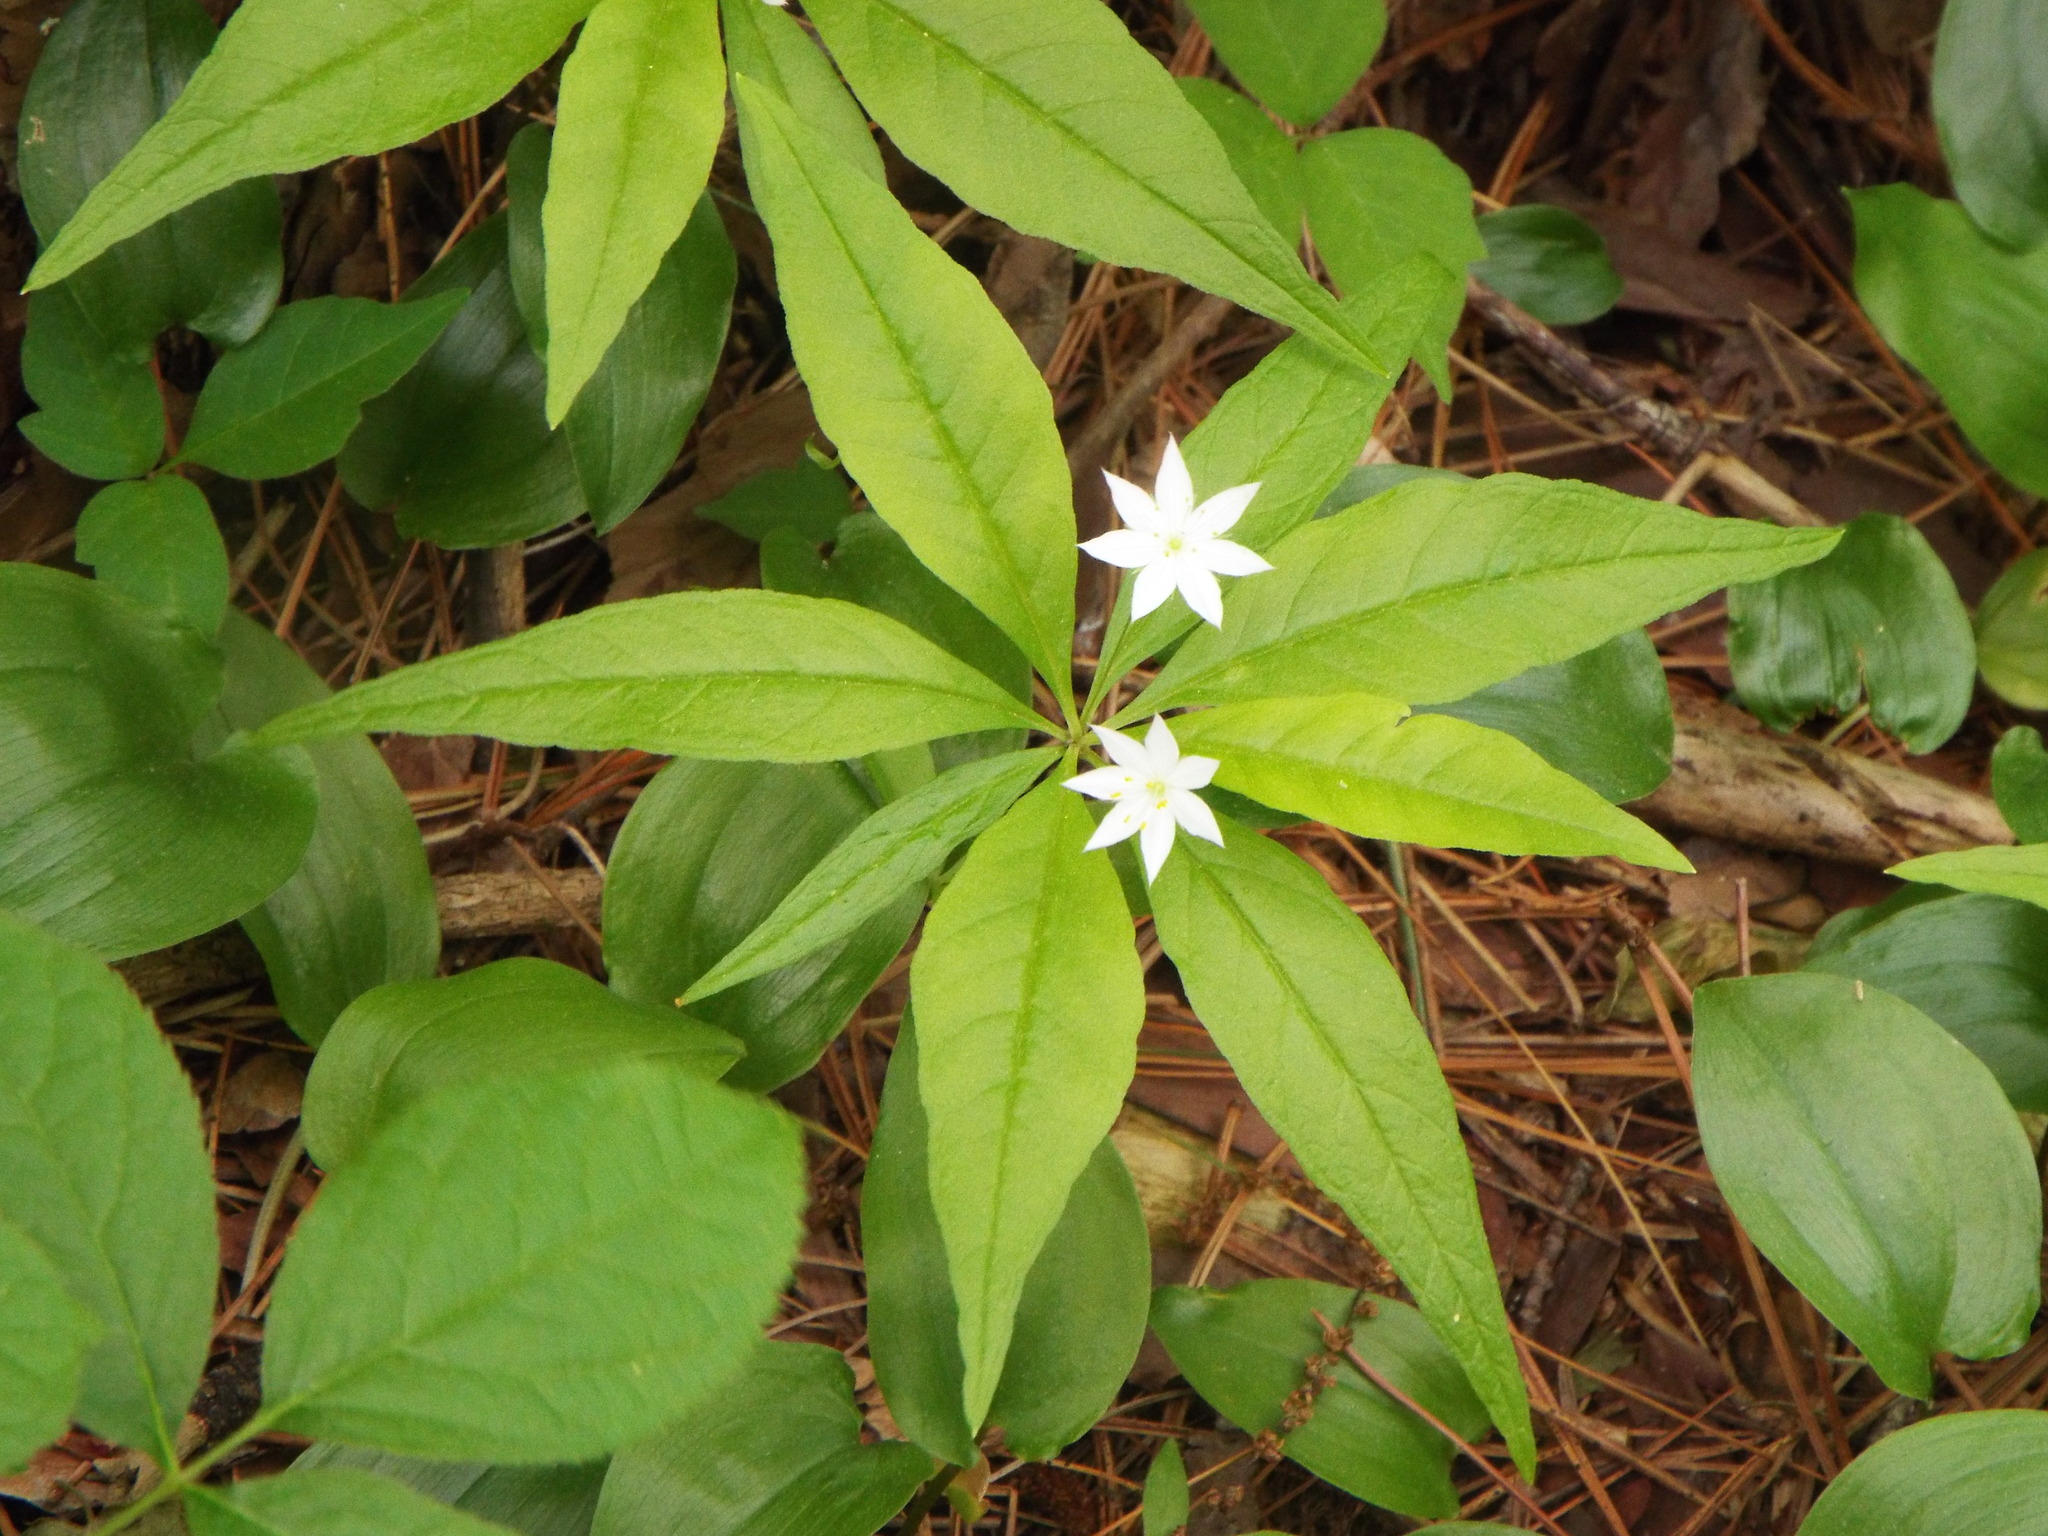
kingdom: Plantae
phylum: Tracheophyta
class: Magnoliopsida
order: Ericales
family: Primulaceae
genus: Lysimachia
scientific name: Lysimachia borealis
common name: American starflower
